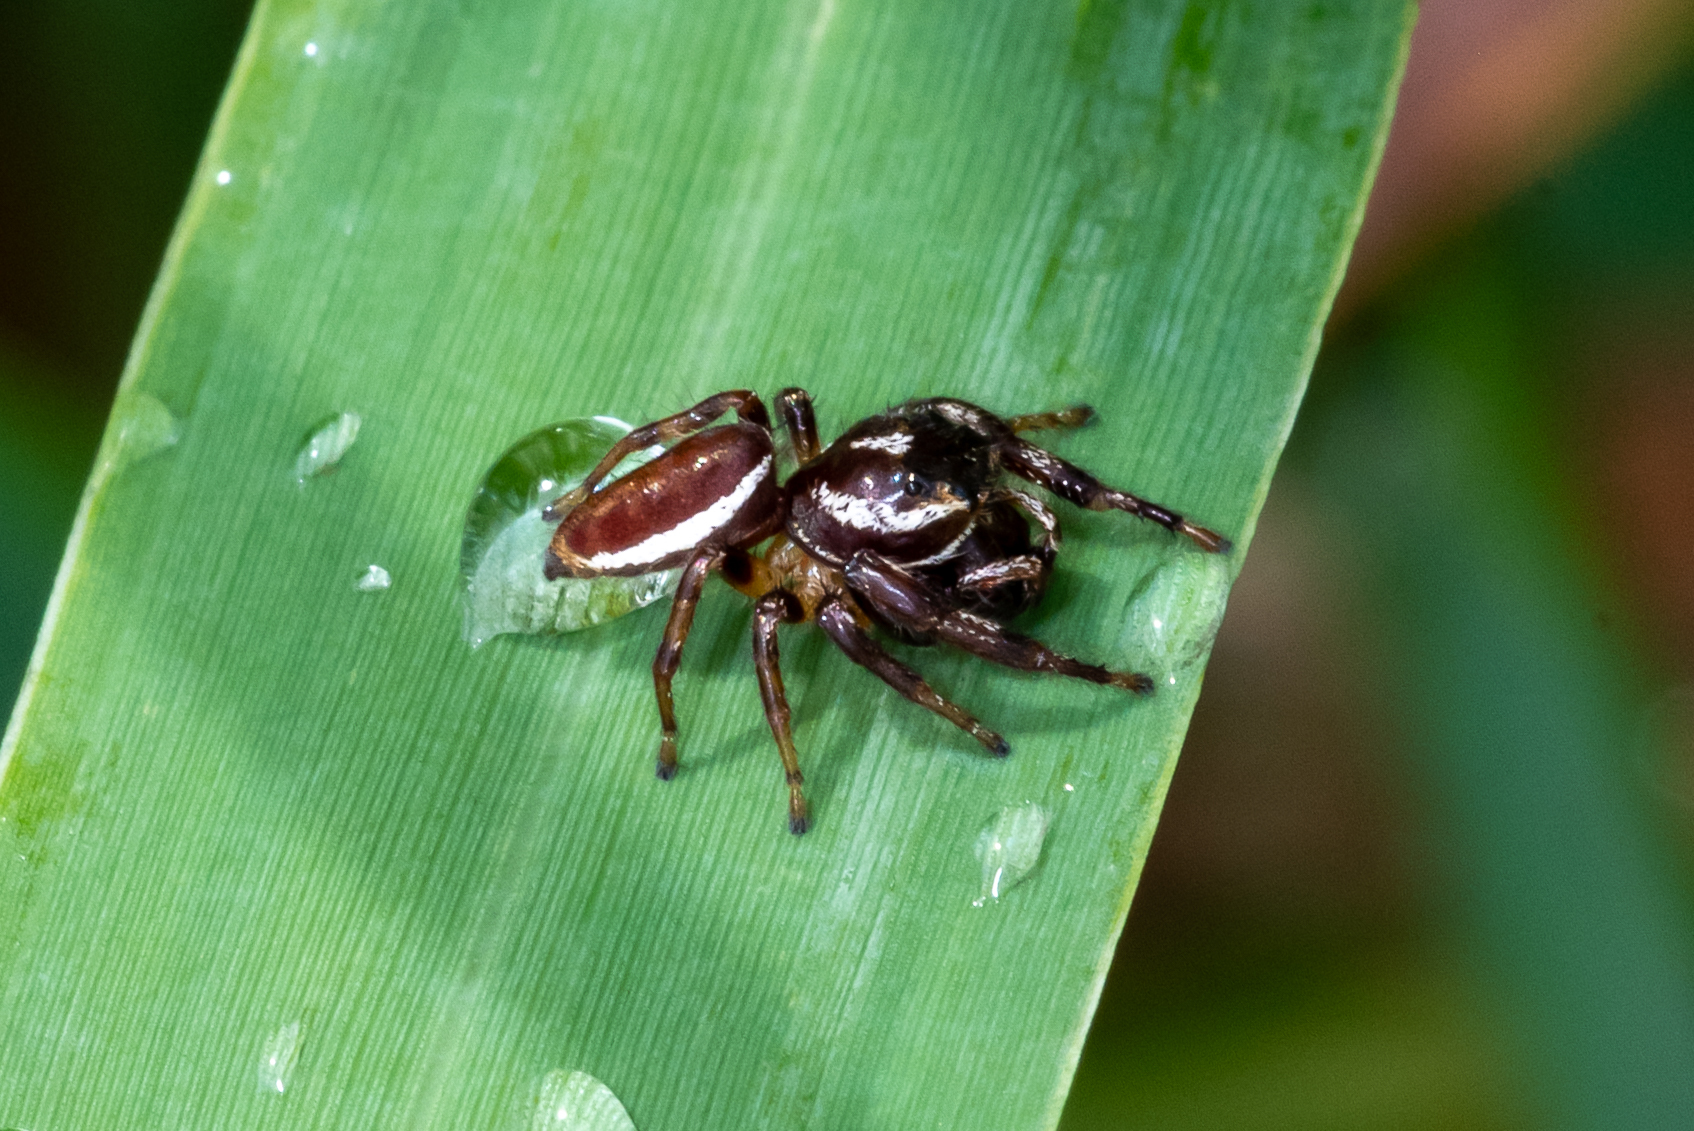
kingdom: Animalia
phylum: Arthropoda
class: Arachnida
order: Araneae
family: Salticidae
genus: Eris
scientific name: Eris militaris
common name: Bronze jumper
